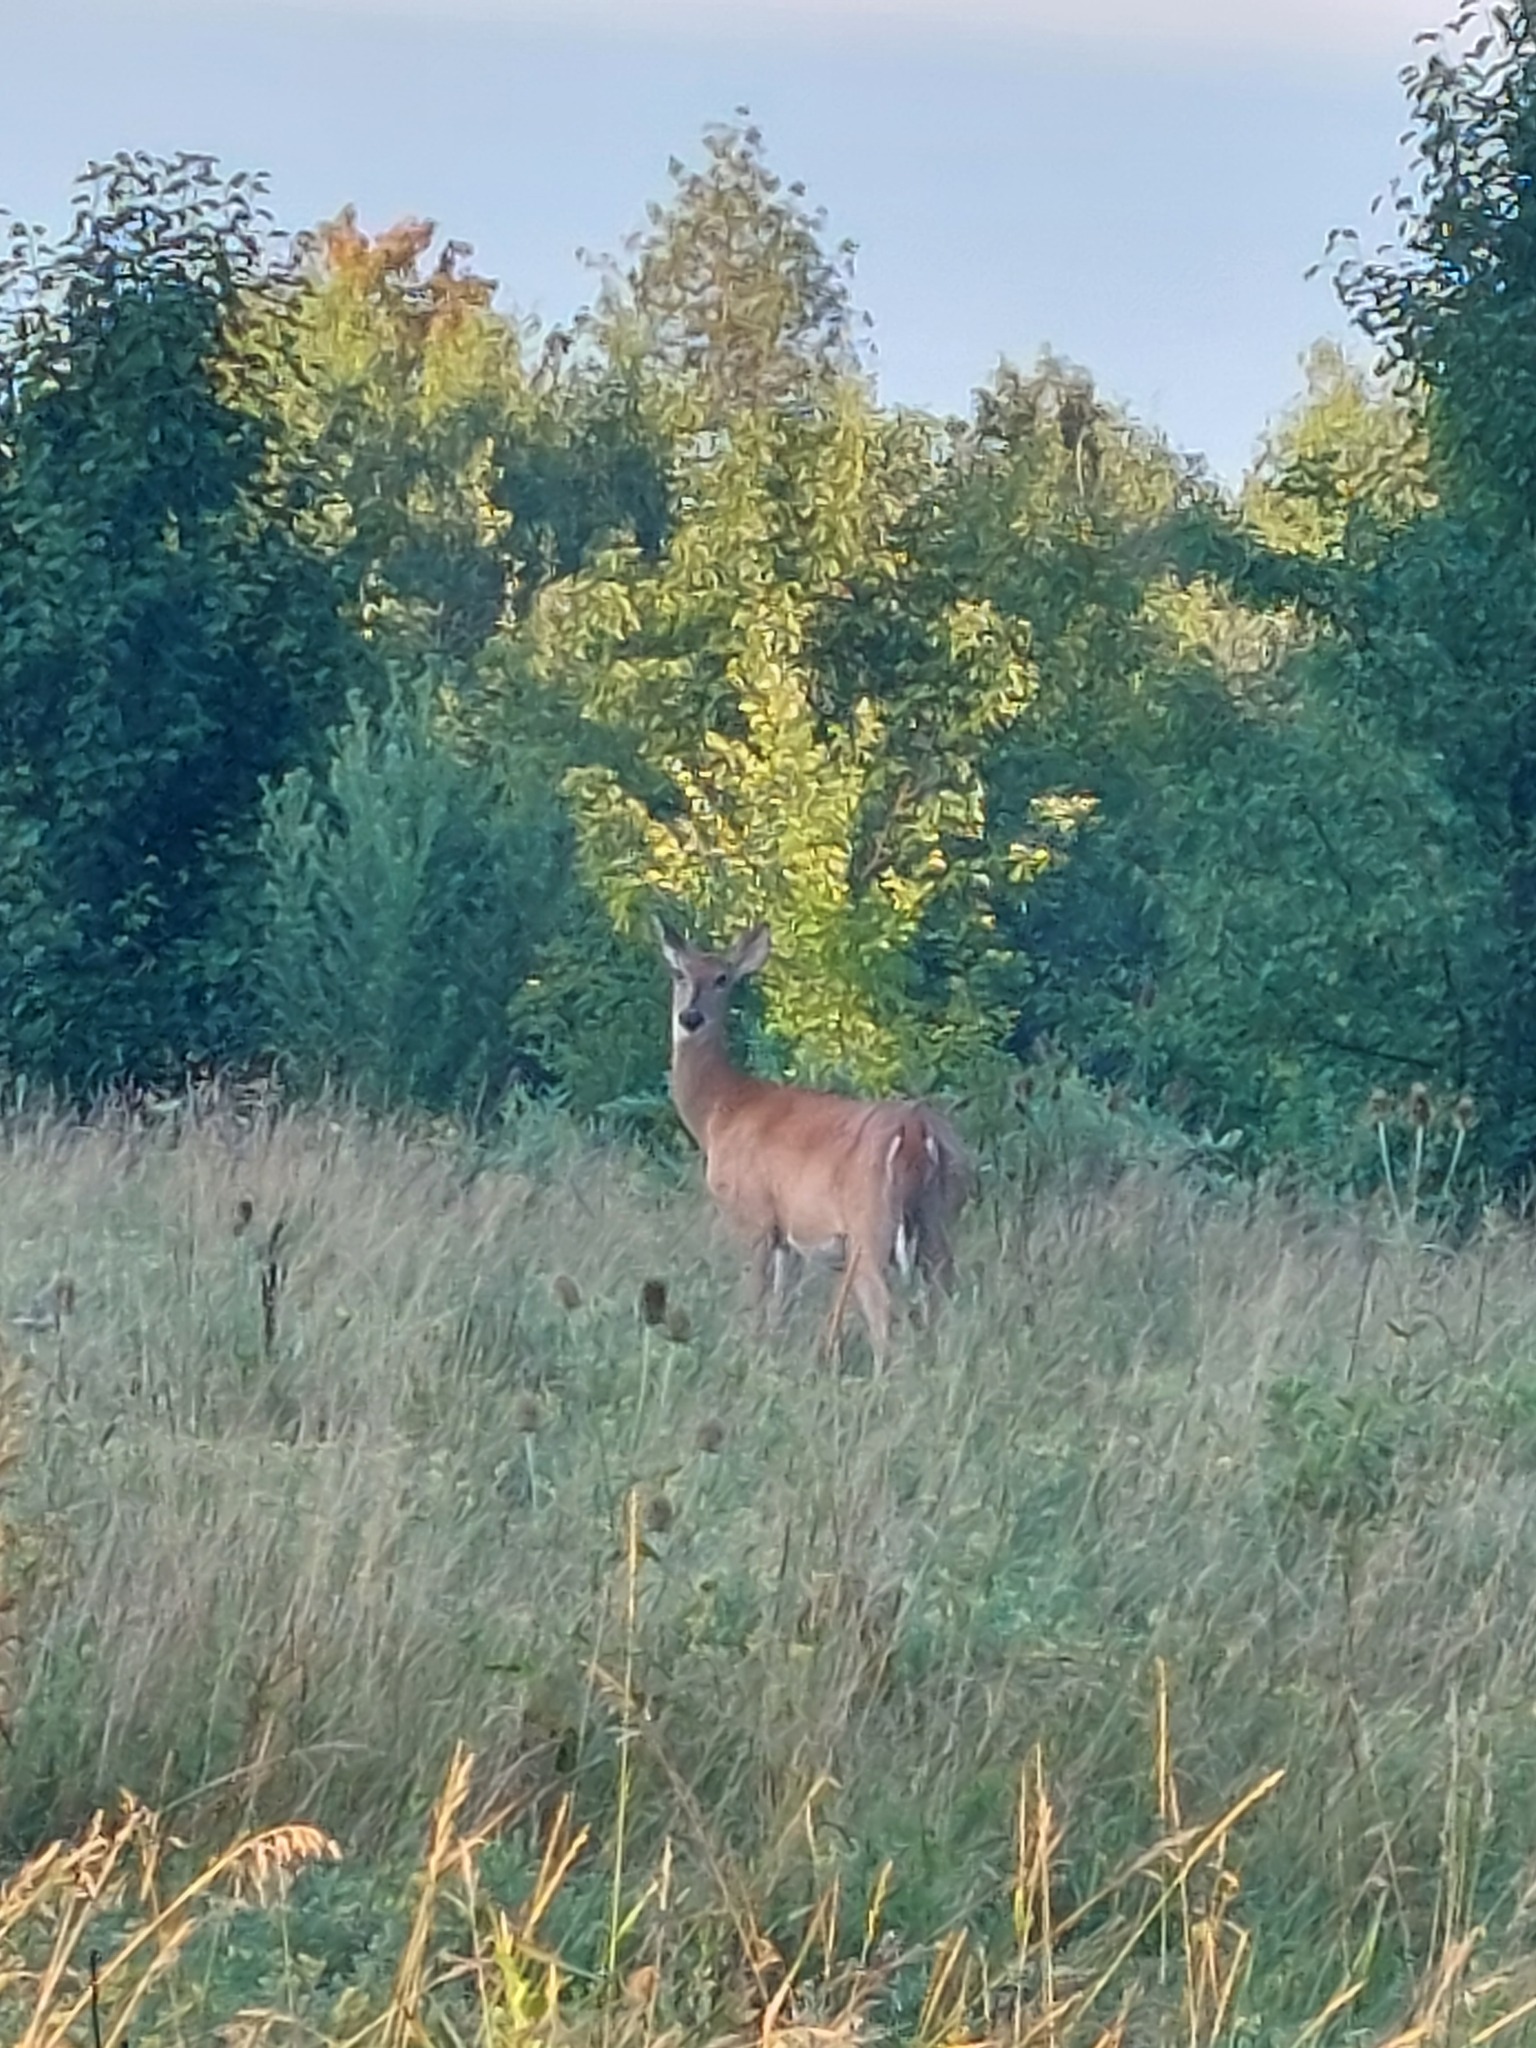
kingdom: Animalia
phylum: Chordata
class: Mammalia
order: Artiodactyla
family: Cervidae
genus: Odocoileus
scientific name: Odocoileus virginianus
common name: White-tailed deer
